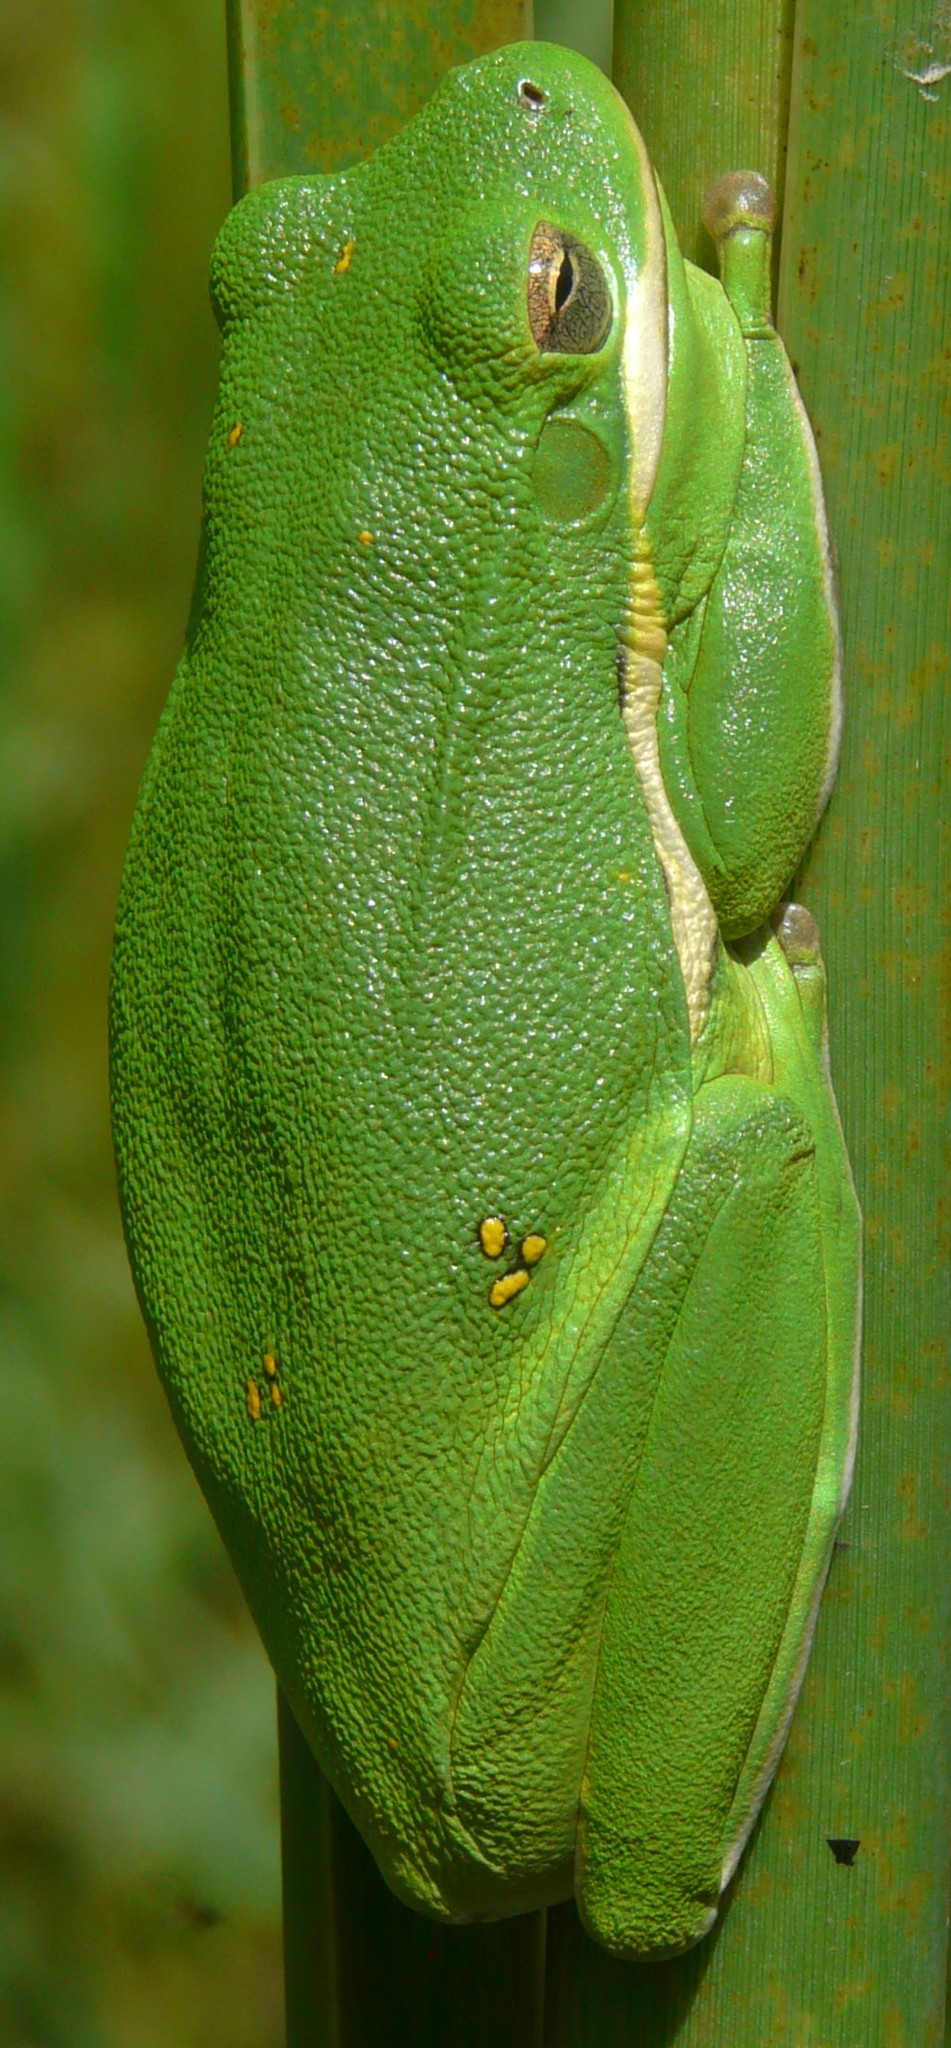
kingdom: Animalia
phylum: Chordata
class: Amphibia
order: Anura
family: Hylidae
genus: Dryophytes
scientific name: Dryophytes cinereus
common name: Green treefrog
